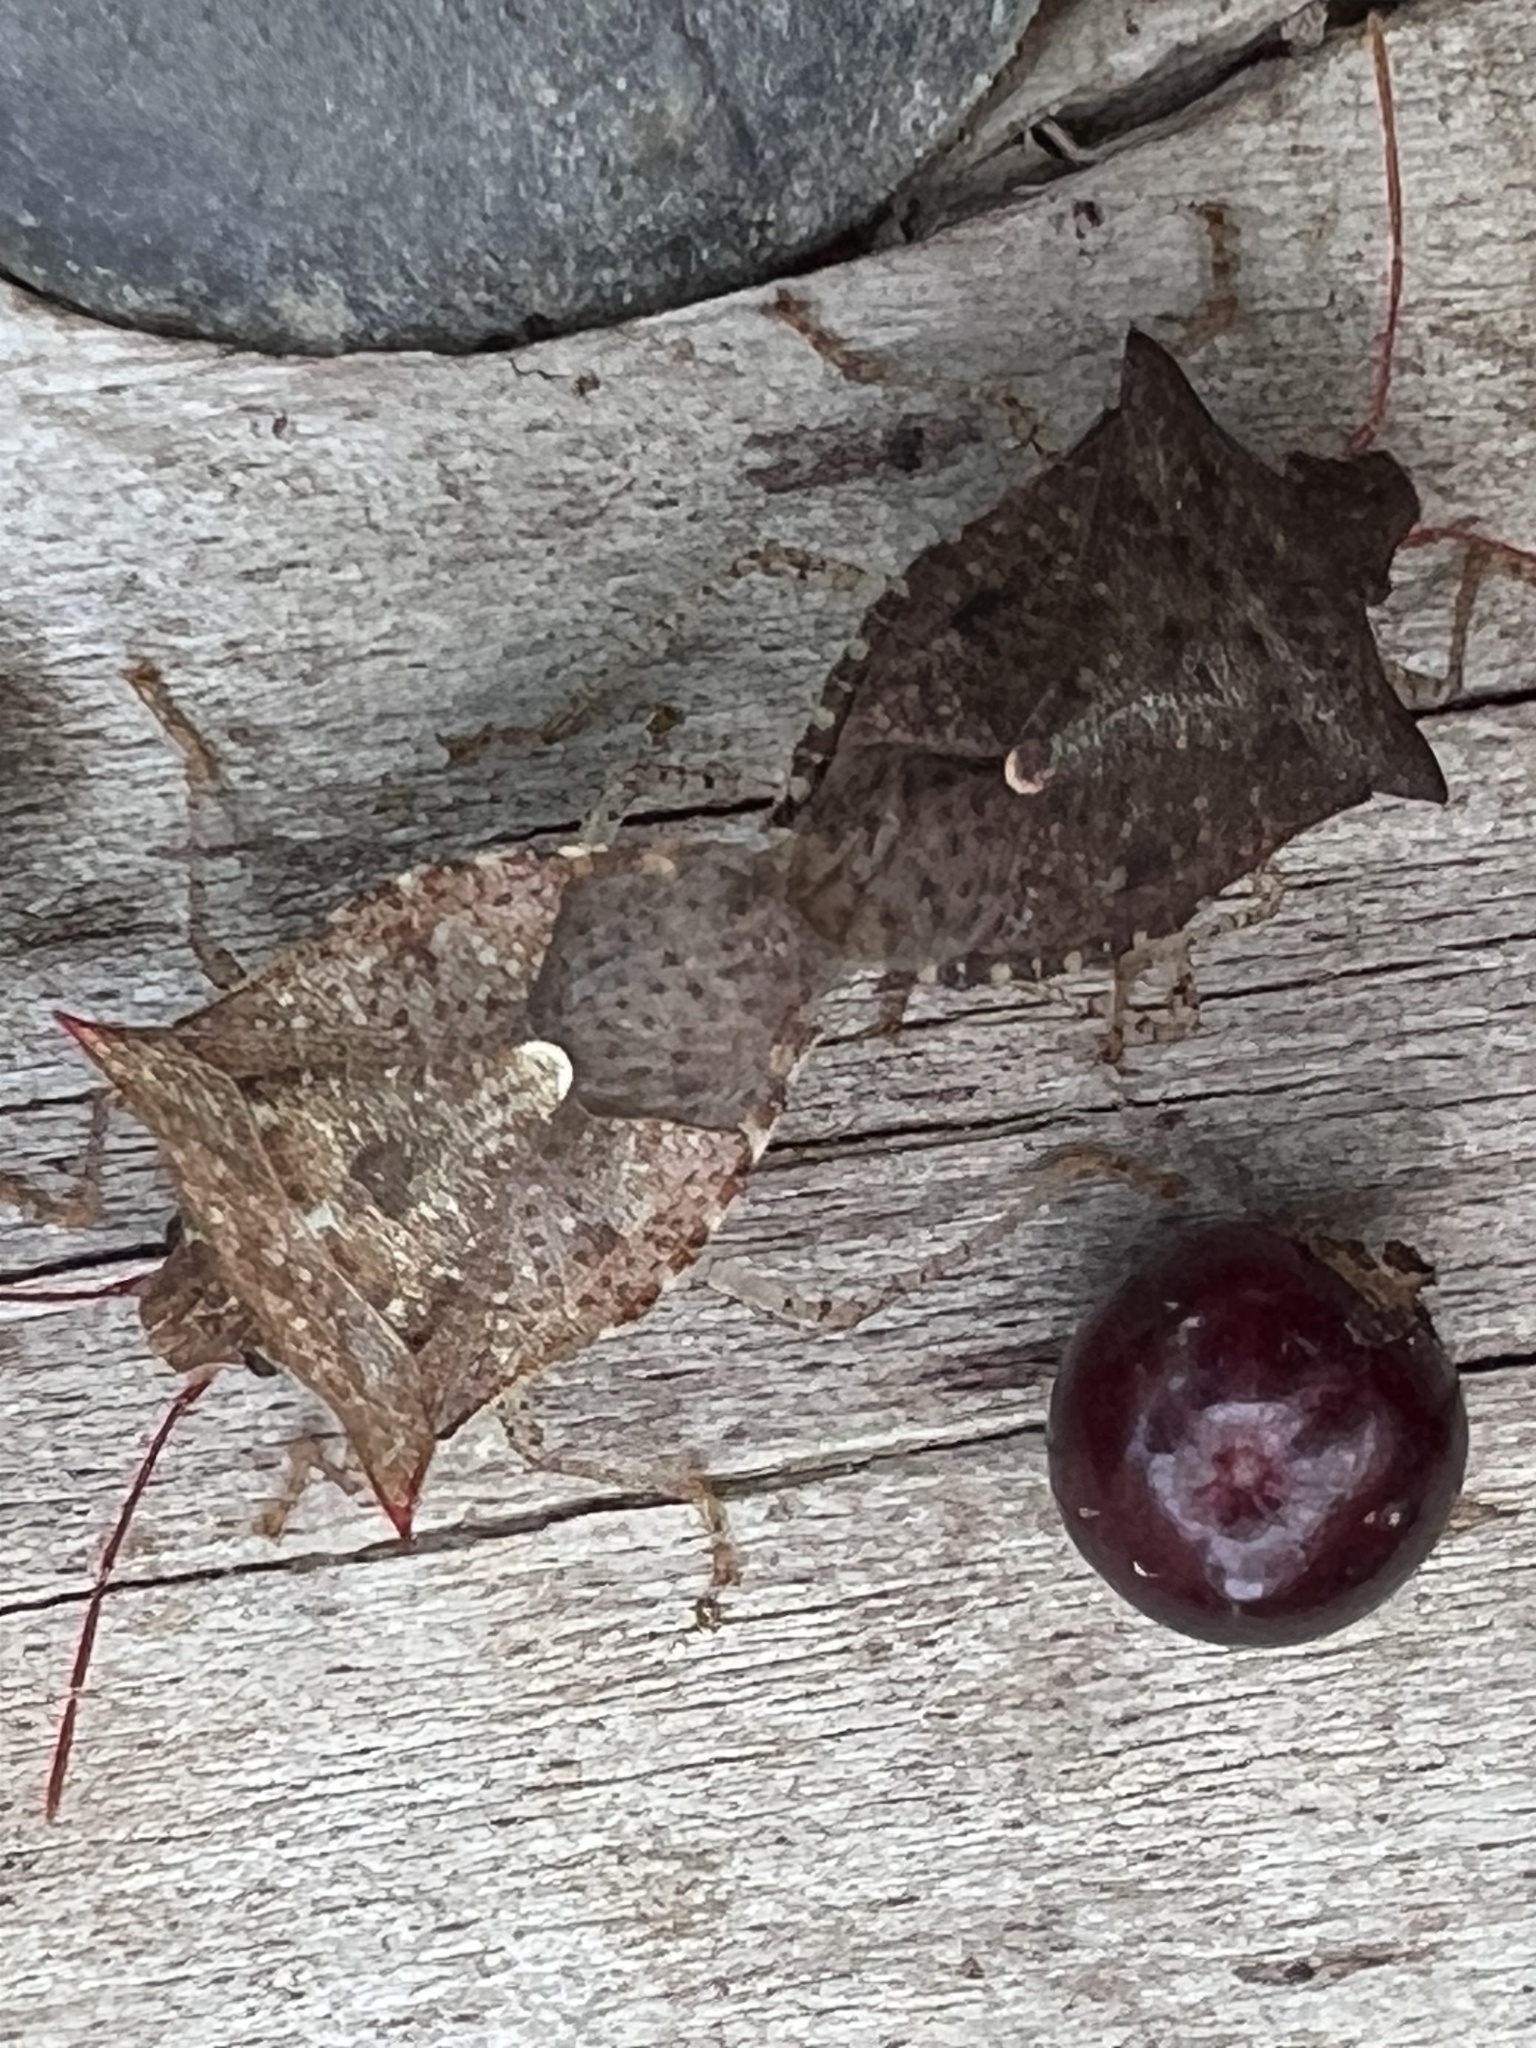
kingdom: Animalia
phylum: Arthropoda
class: Insecta
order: Hemiptera
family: Pentatomidae
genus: Euschistus
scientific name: Euschistus tristigmus
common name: Dusky stink bug
